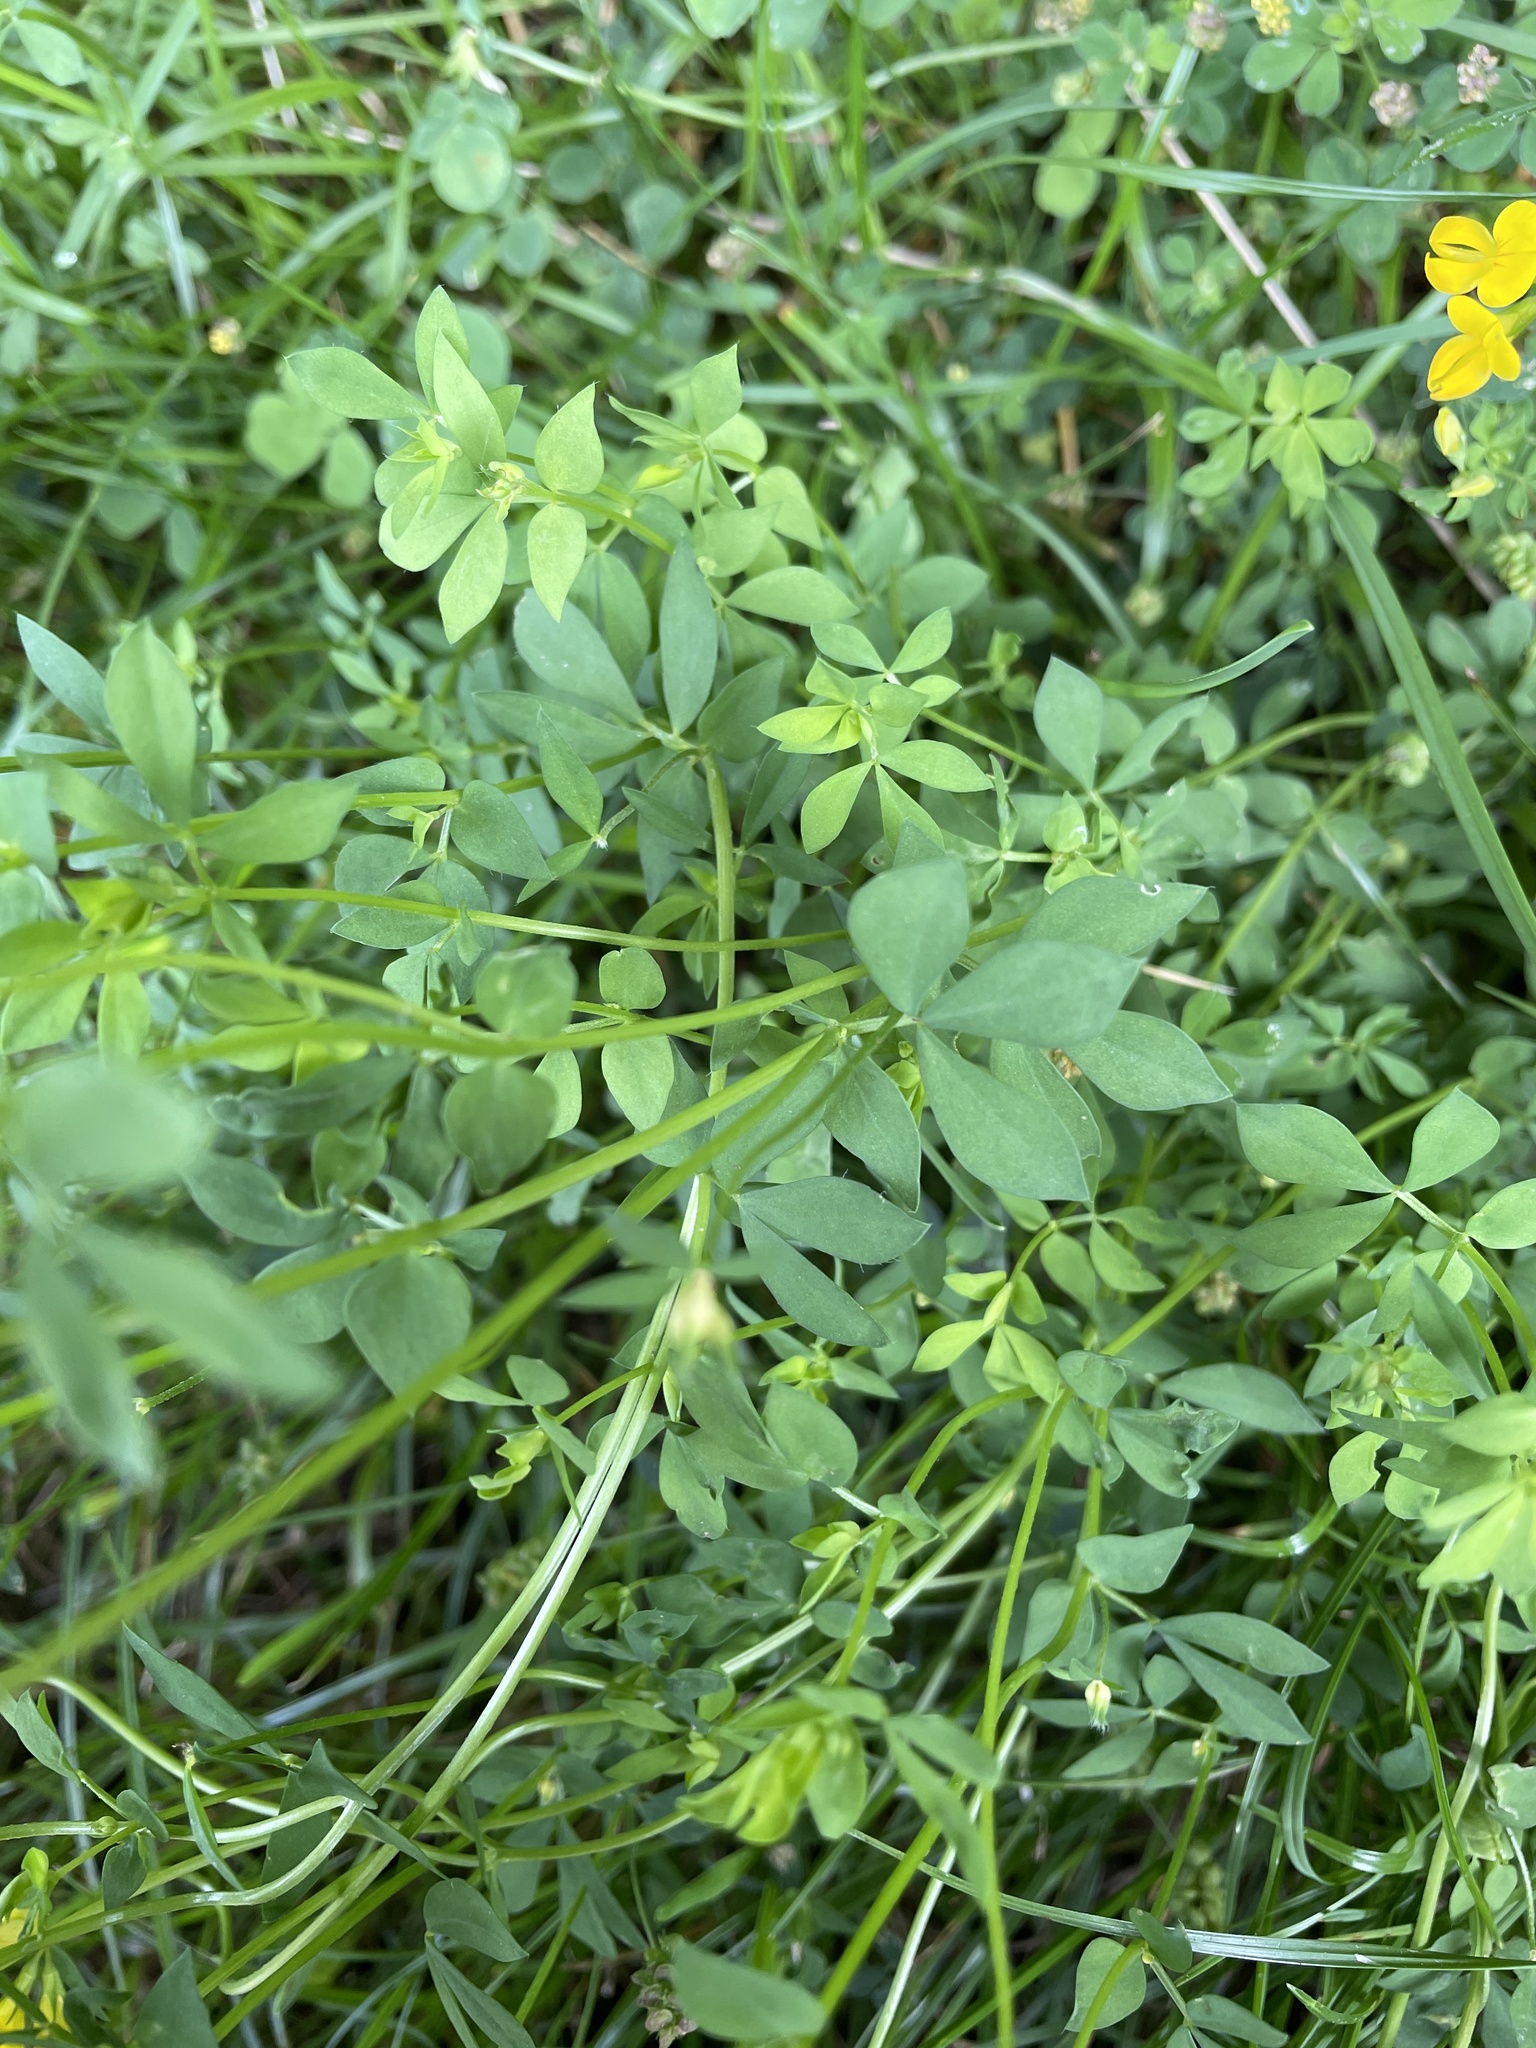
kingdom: Plantae
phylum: Tracheophyta
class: Magnoliopsida
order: Fabales
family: Fabaceae
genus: Lotus
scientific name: Lotus corniculatus
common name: Common bird's-foot-trefoil
